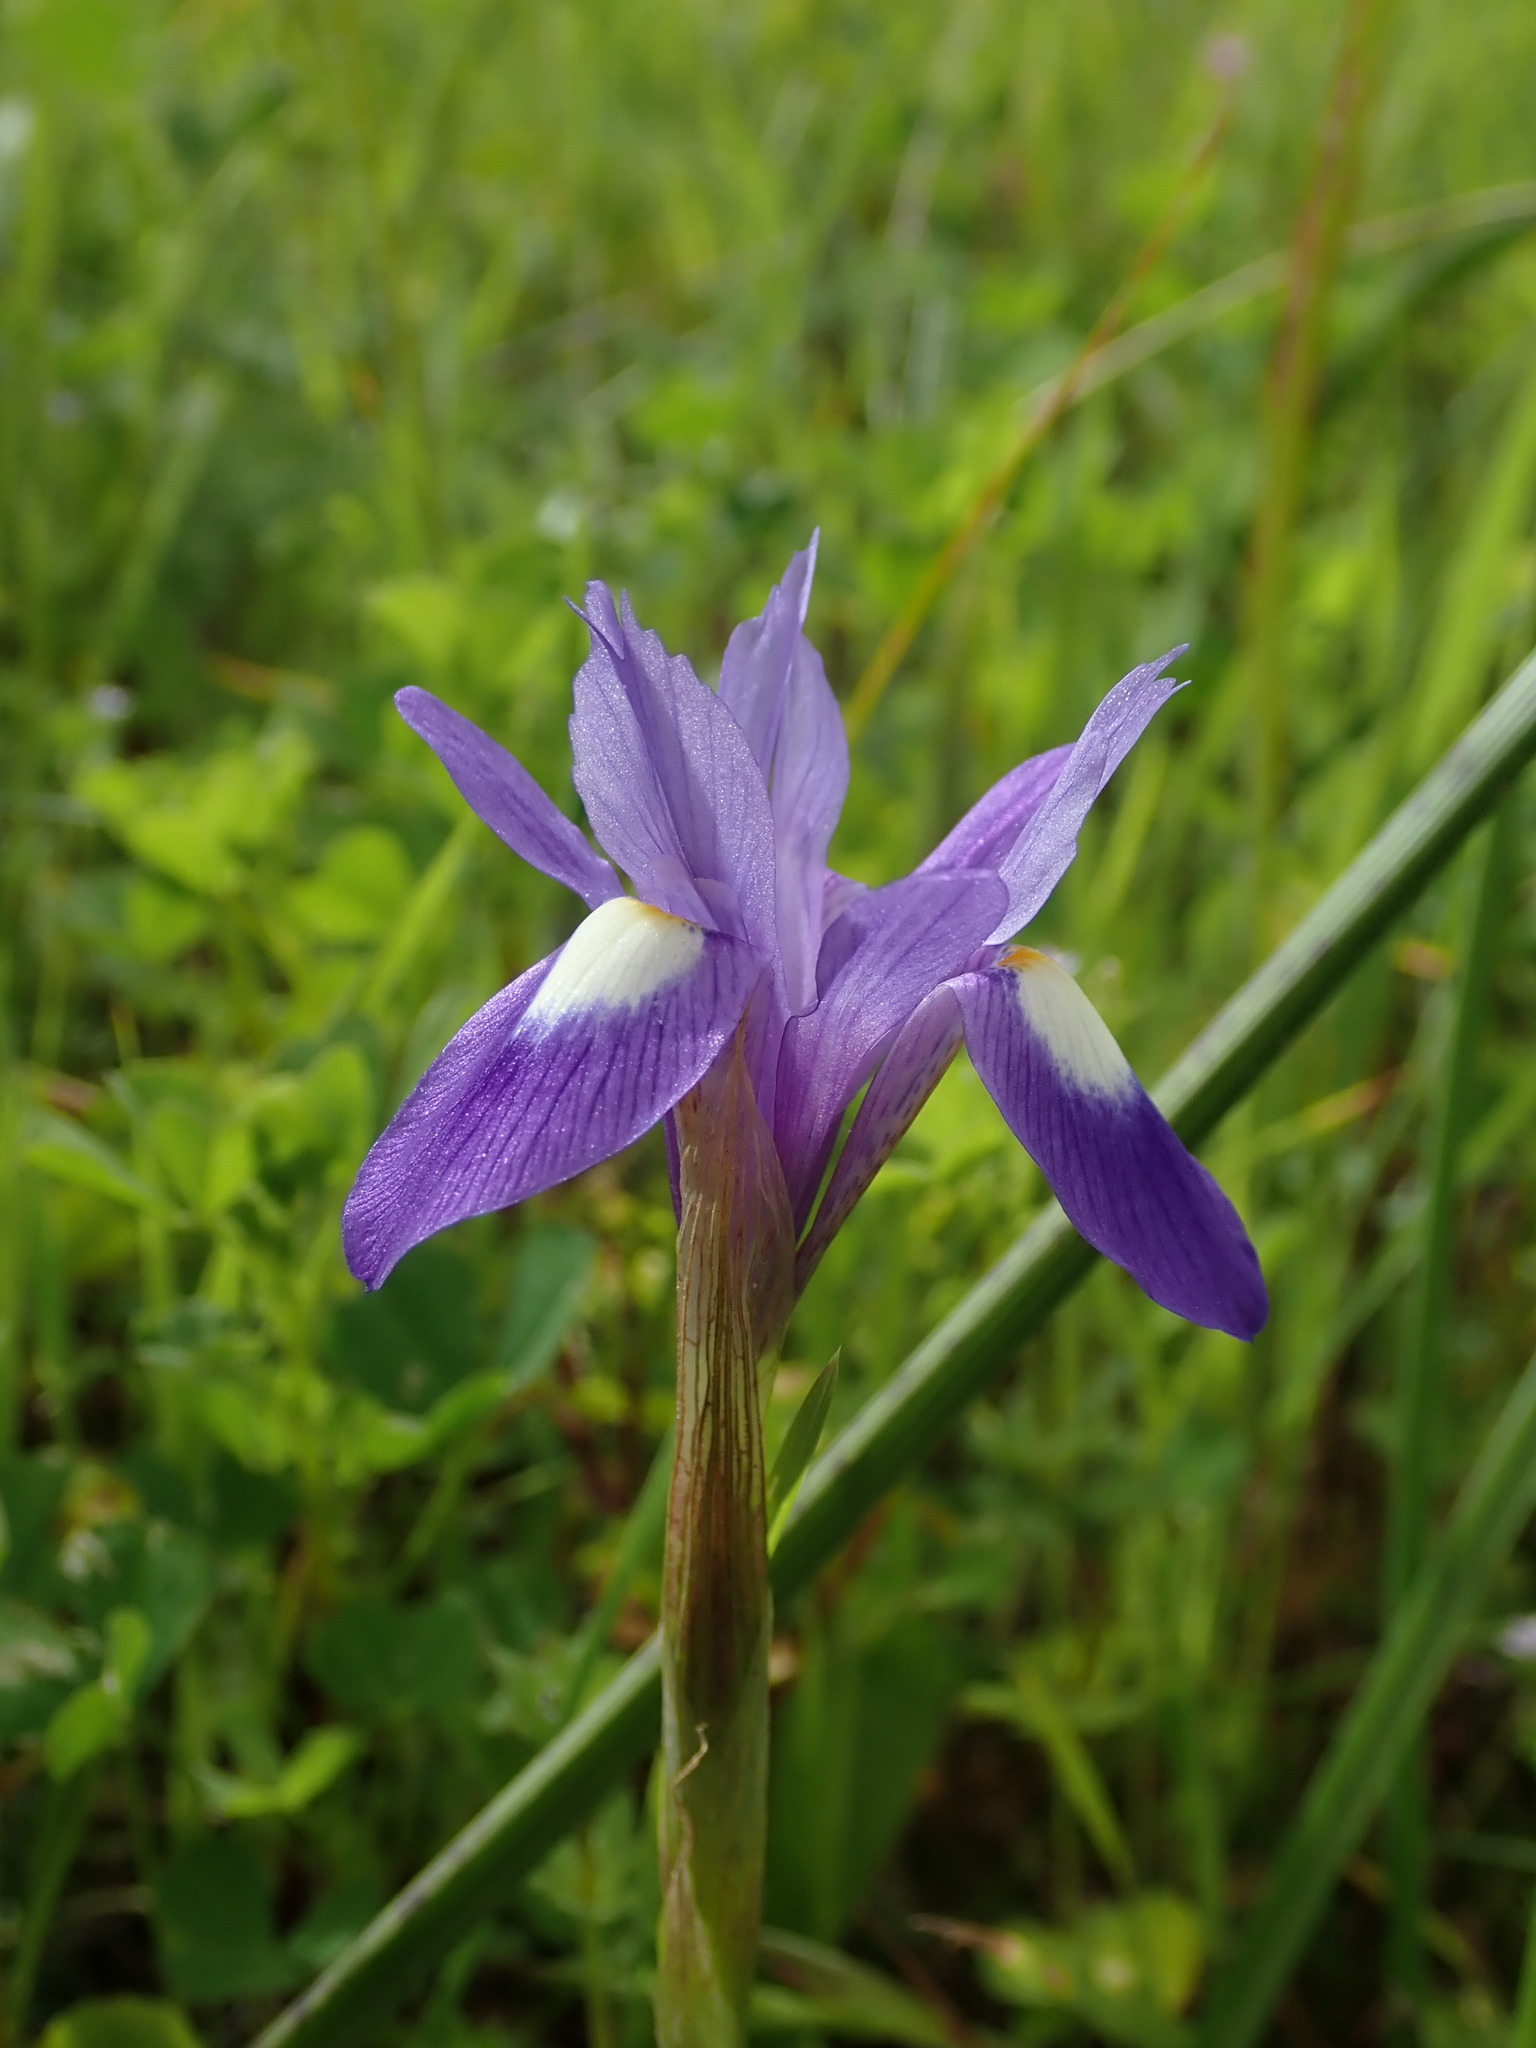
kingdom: Plantae
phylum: Tracheophyta
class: Liliopsida
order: Asparagales
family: Iridaceae
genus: Moraea
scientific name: Moraea sisyrinchium
